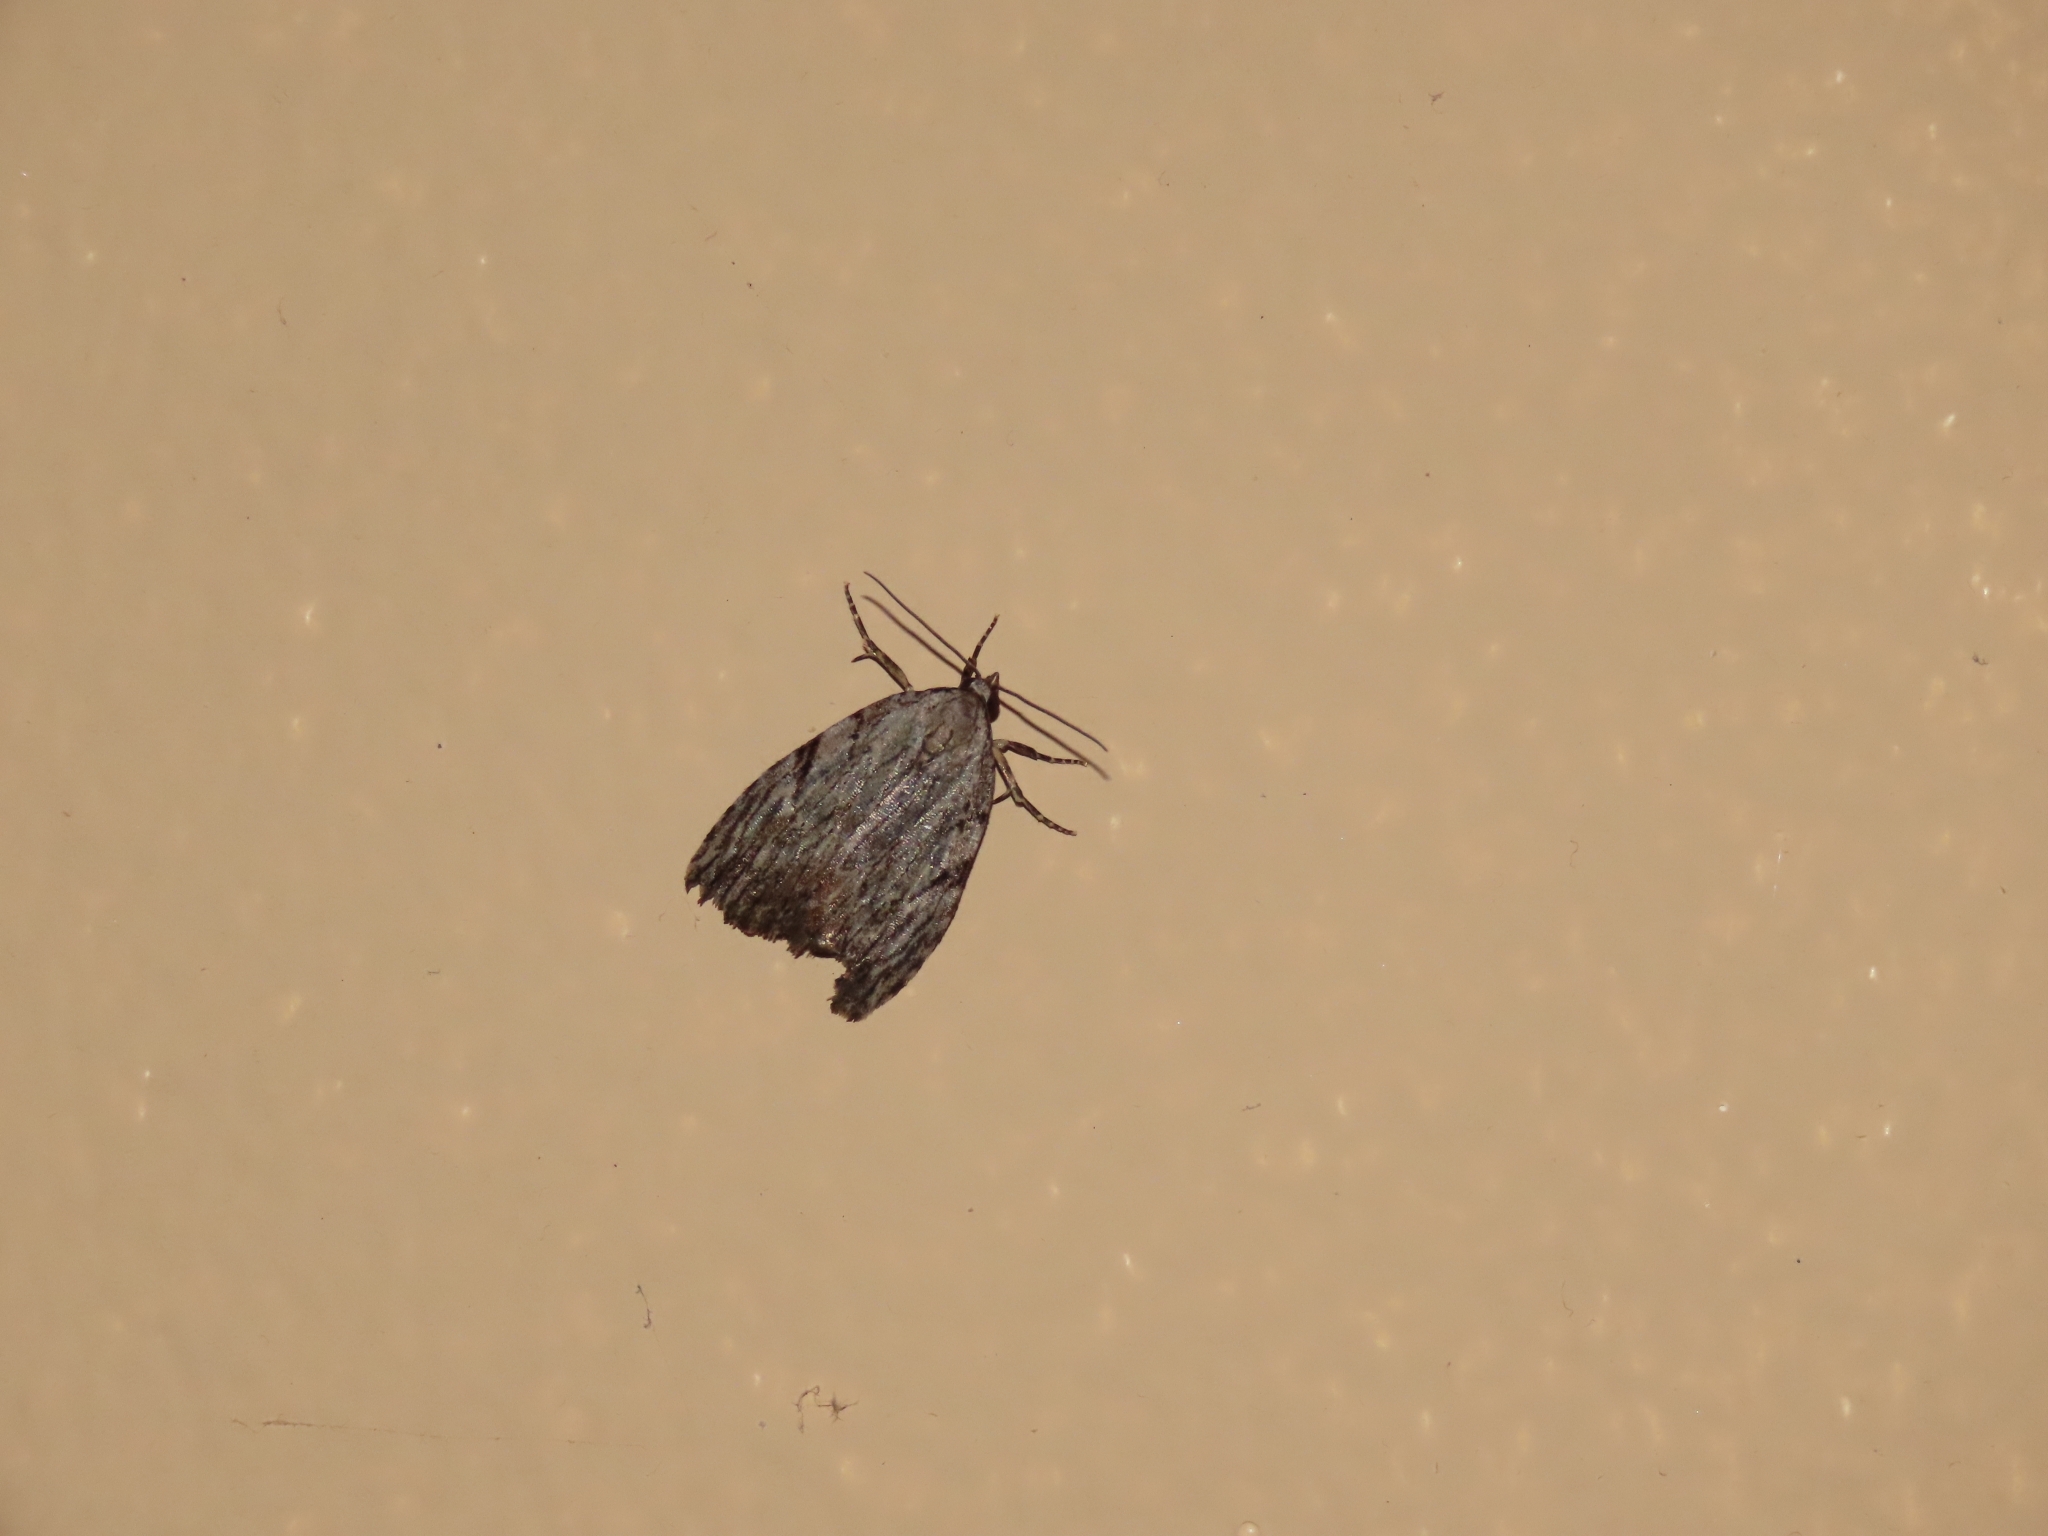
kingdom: Animalia
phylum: Arthropoda
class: Insecta
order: Lepidoptera
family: Noctuidae
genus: Balsa
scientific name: Balsa tristrigella
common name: Three-lined balsa moth
